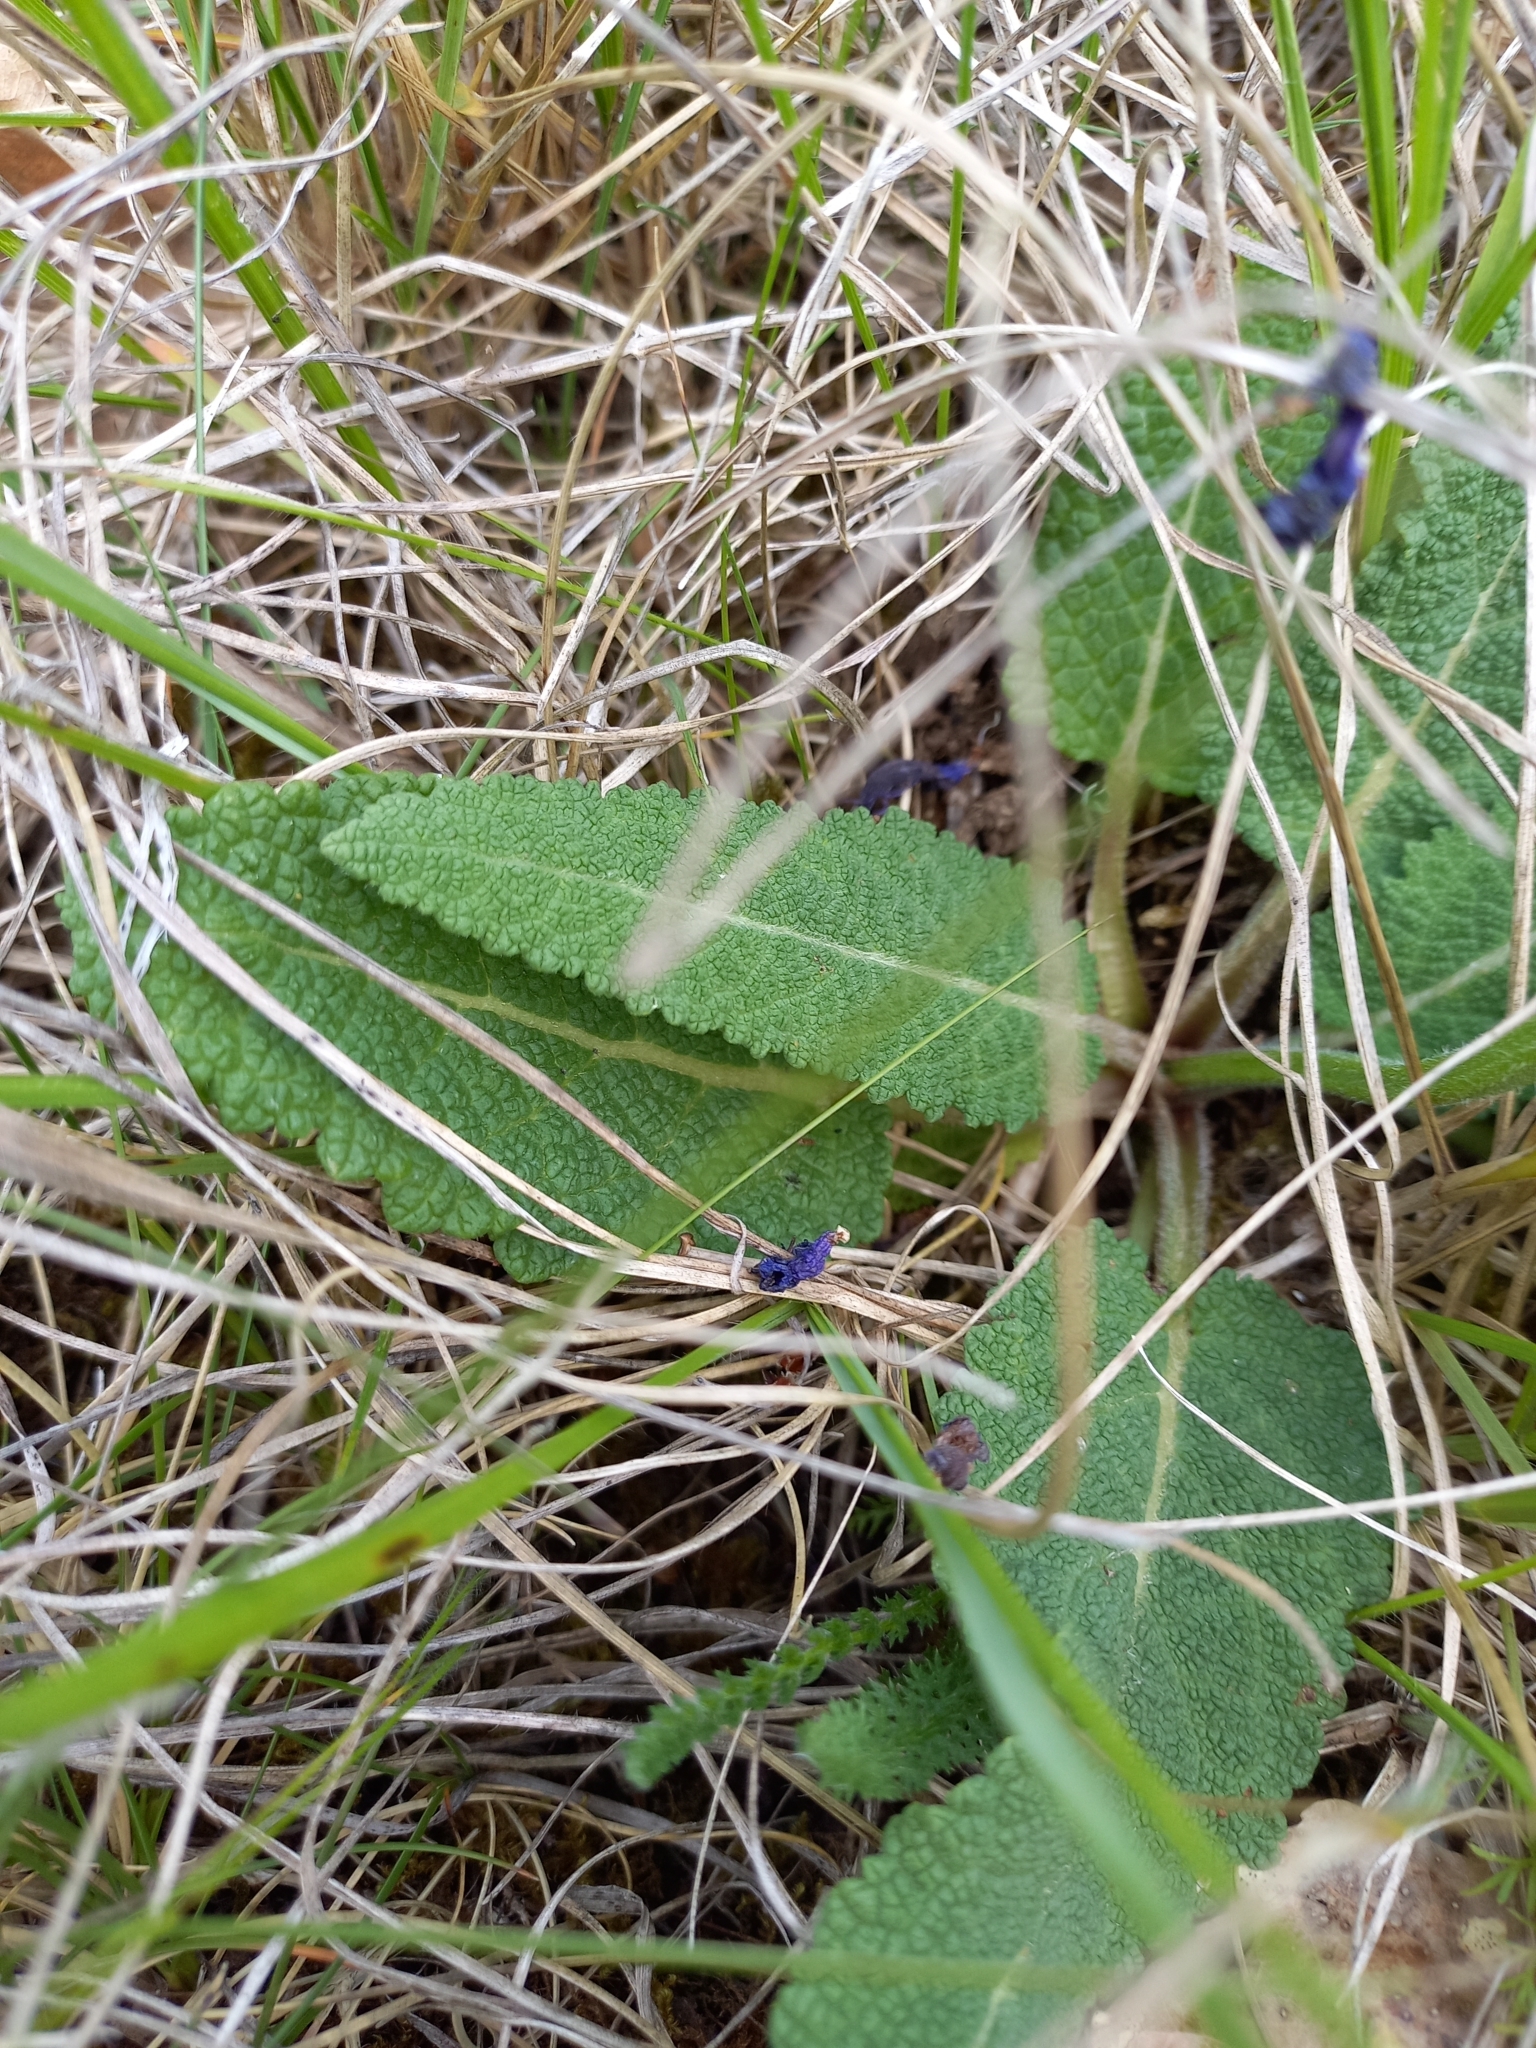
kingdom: Plantae
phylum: Tracheophyta
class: Magnoliopsida
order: Lamiales
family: Lamiaceae
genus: Salvia
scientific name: Salvia pratensis
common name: Meadow sage
